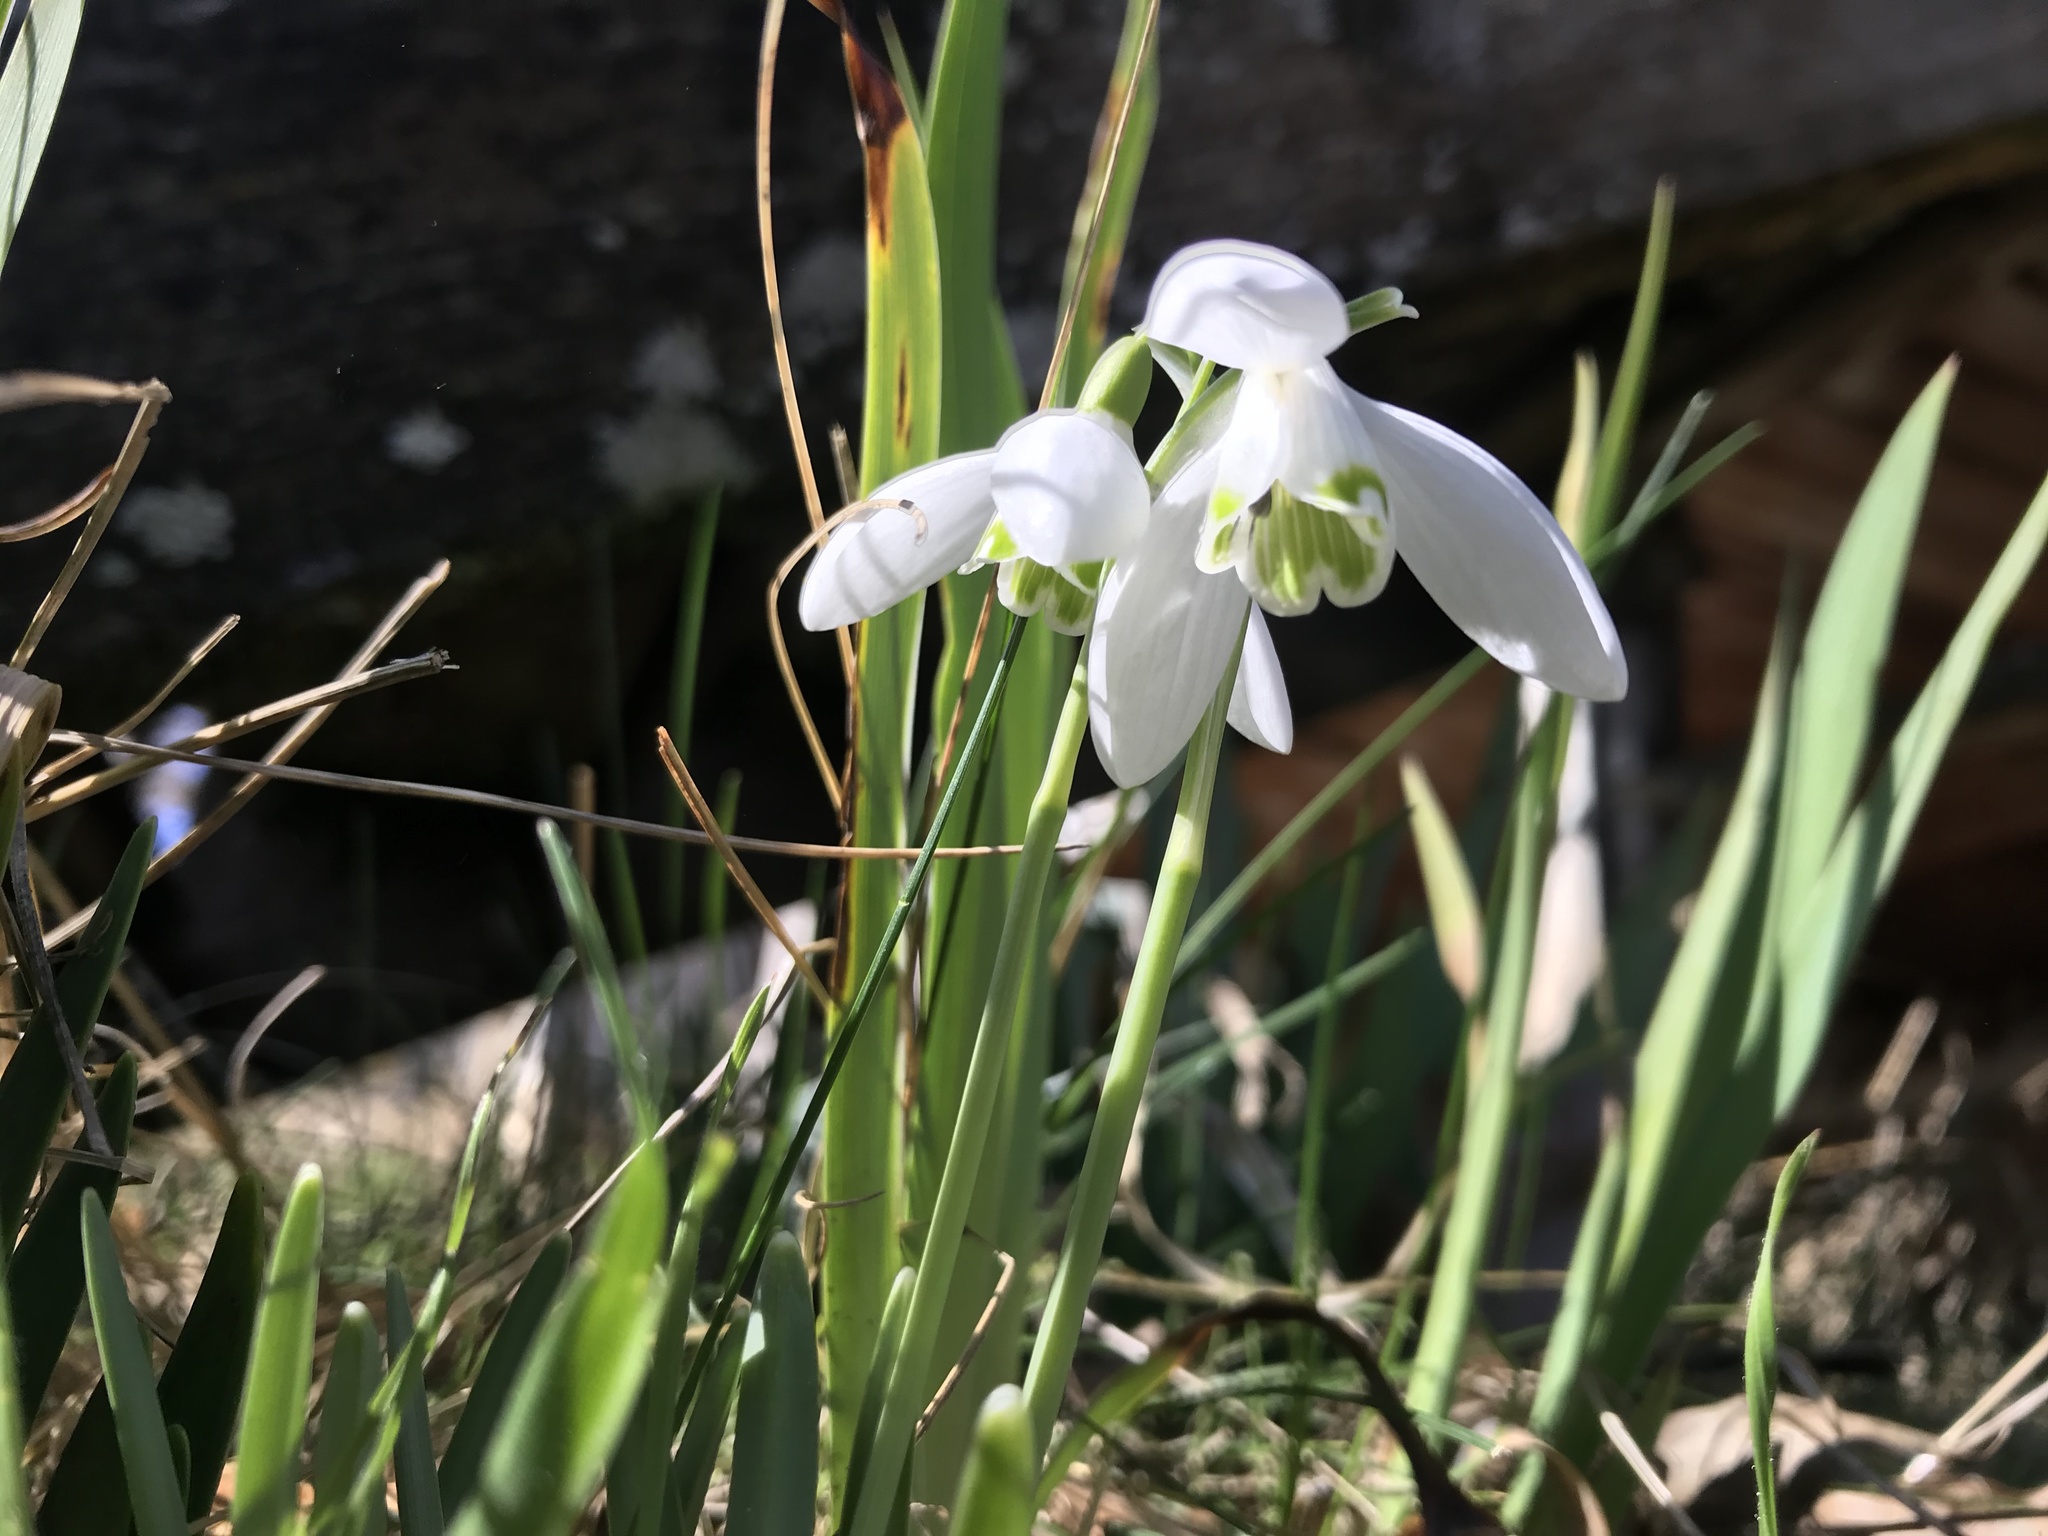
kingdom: Plantae
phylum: Tracheophyta
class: Liliopsida
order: Asparagales
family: Amaryllidaceae
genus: Galanthus
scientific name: Galanthus nivalis
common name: Snowdrop
